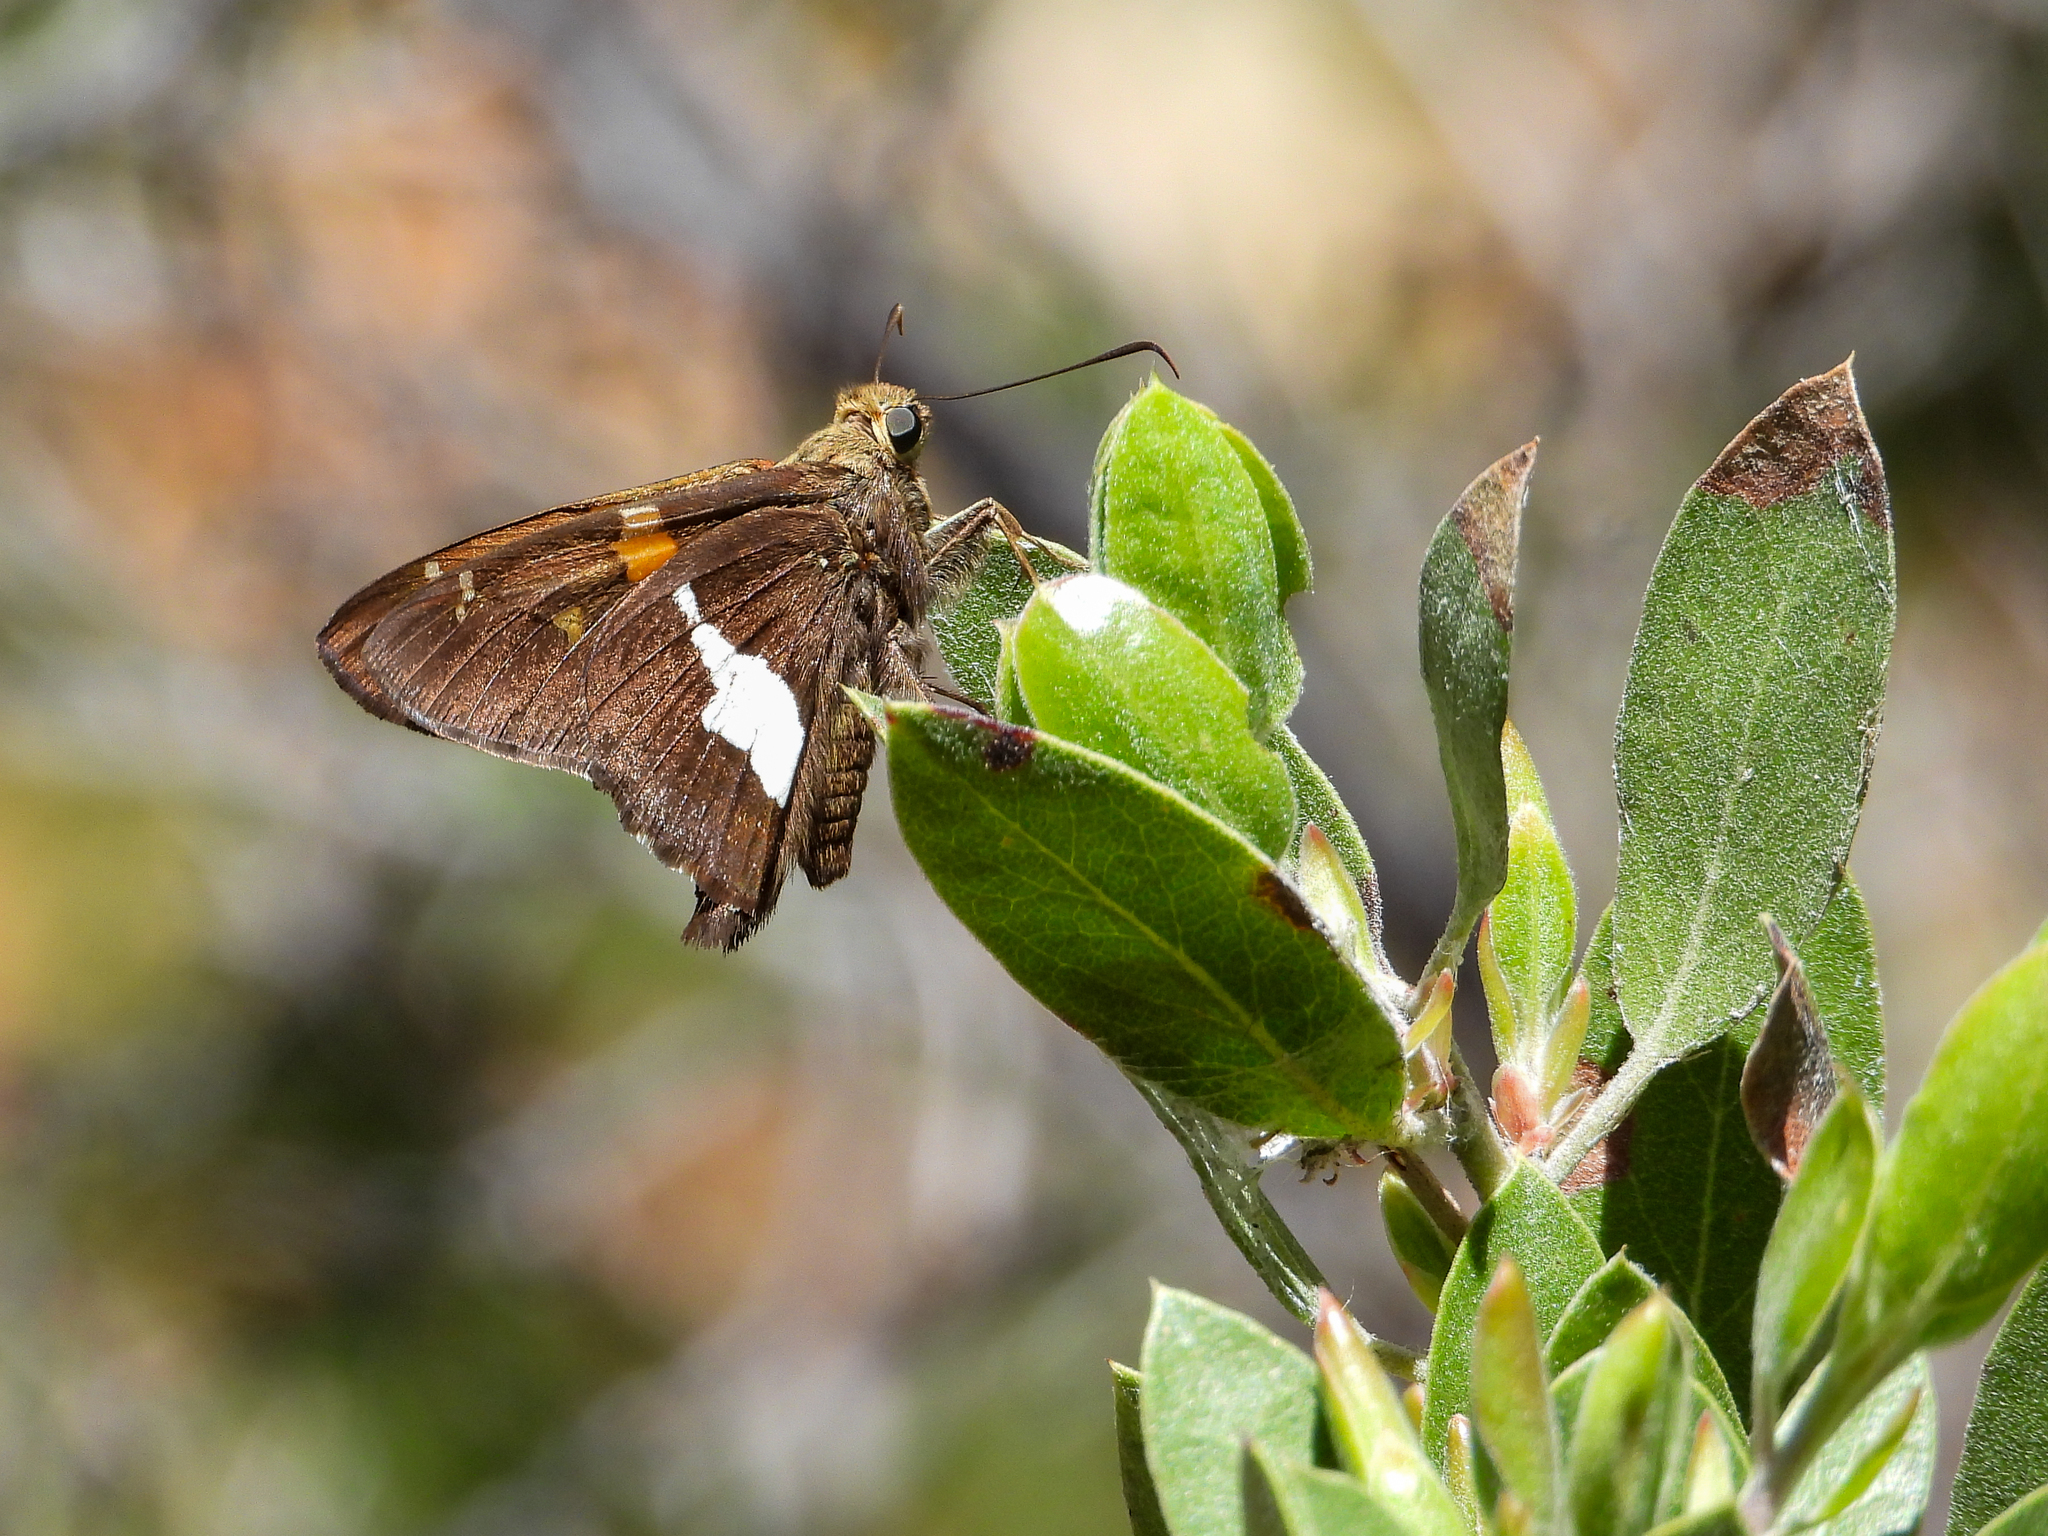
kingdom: Animalia
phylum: Arthropoda
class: Insecta
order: Lepidoptera
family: Hesperiidae
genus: Epargyreus
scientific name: Epargyreus clarus
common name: Silver-spotted skipper
